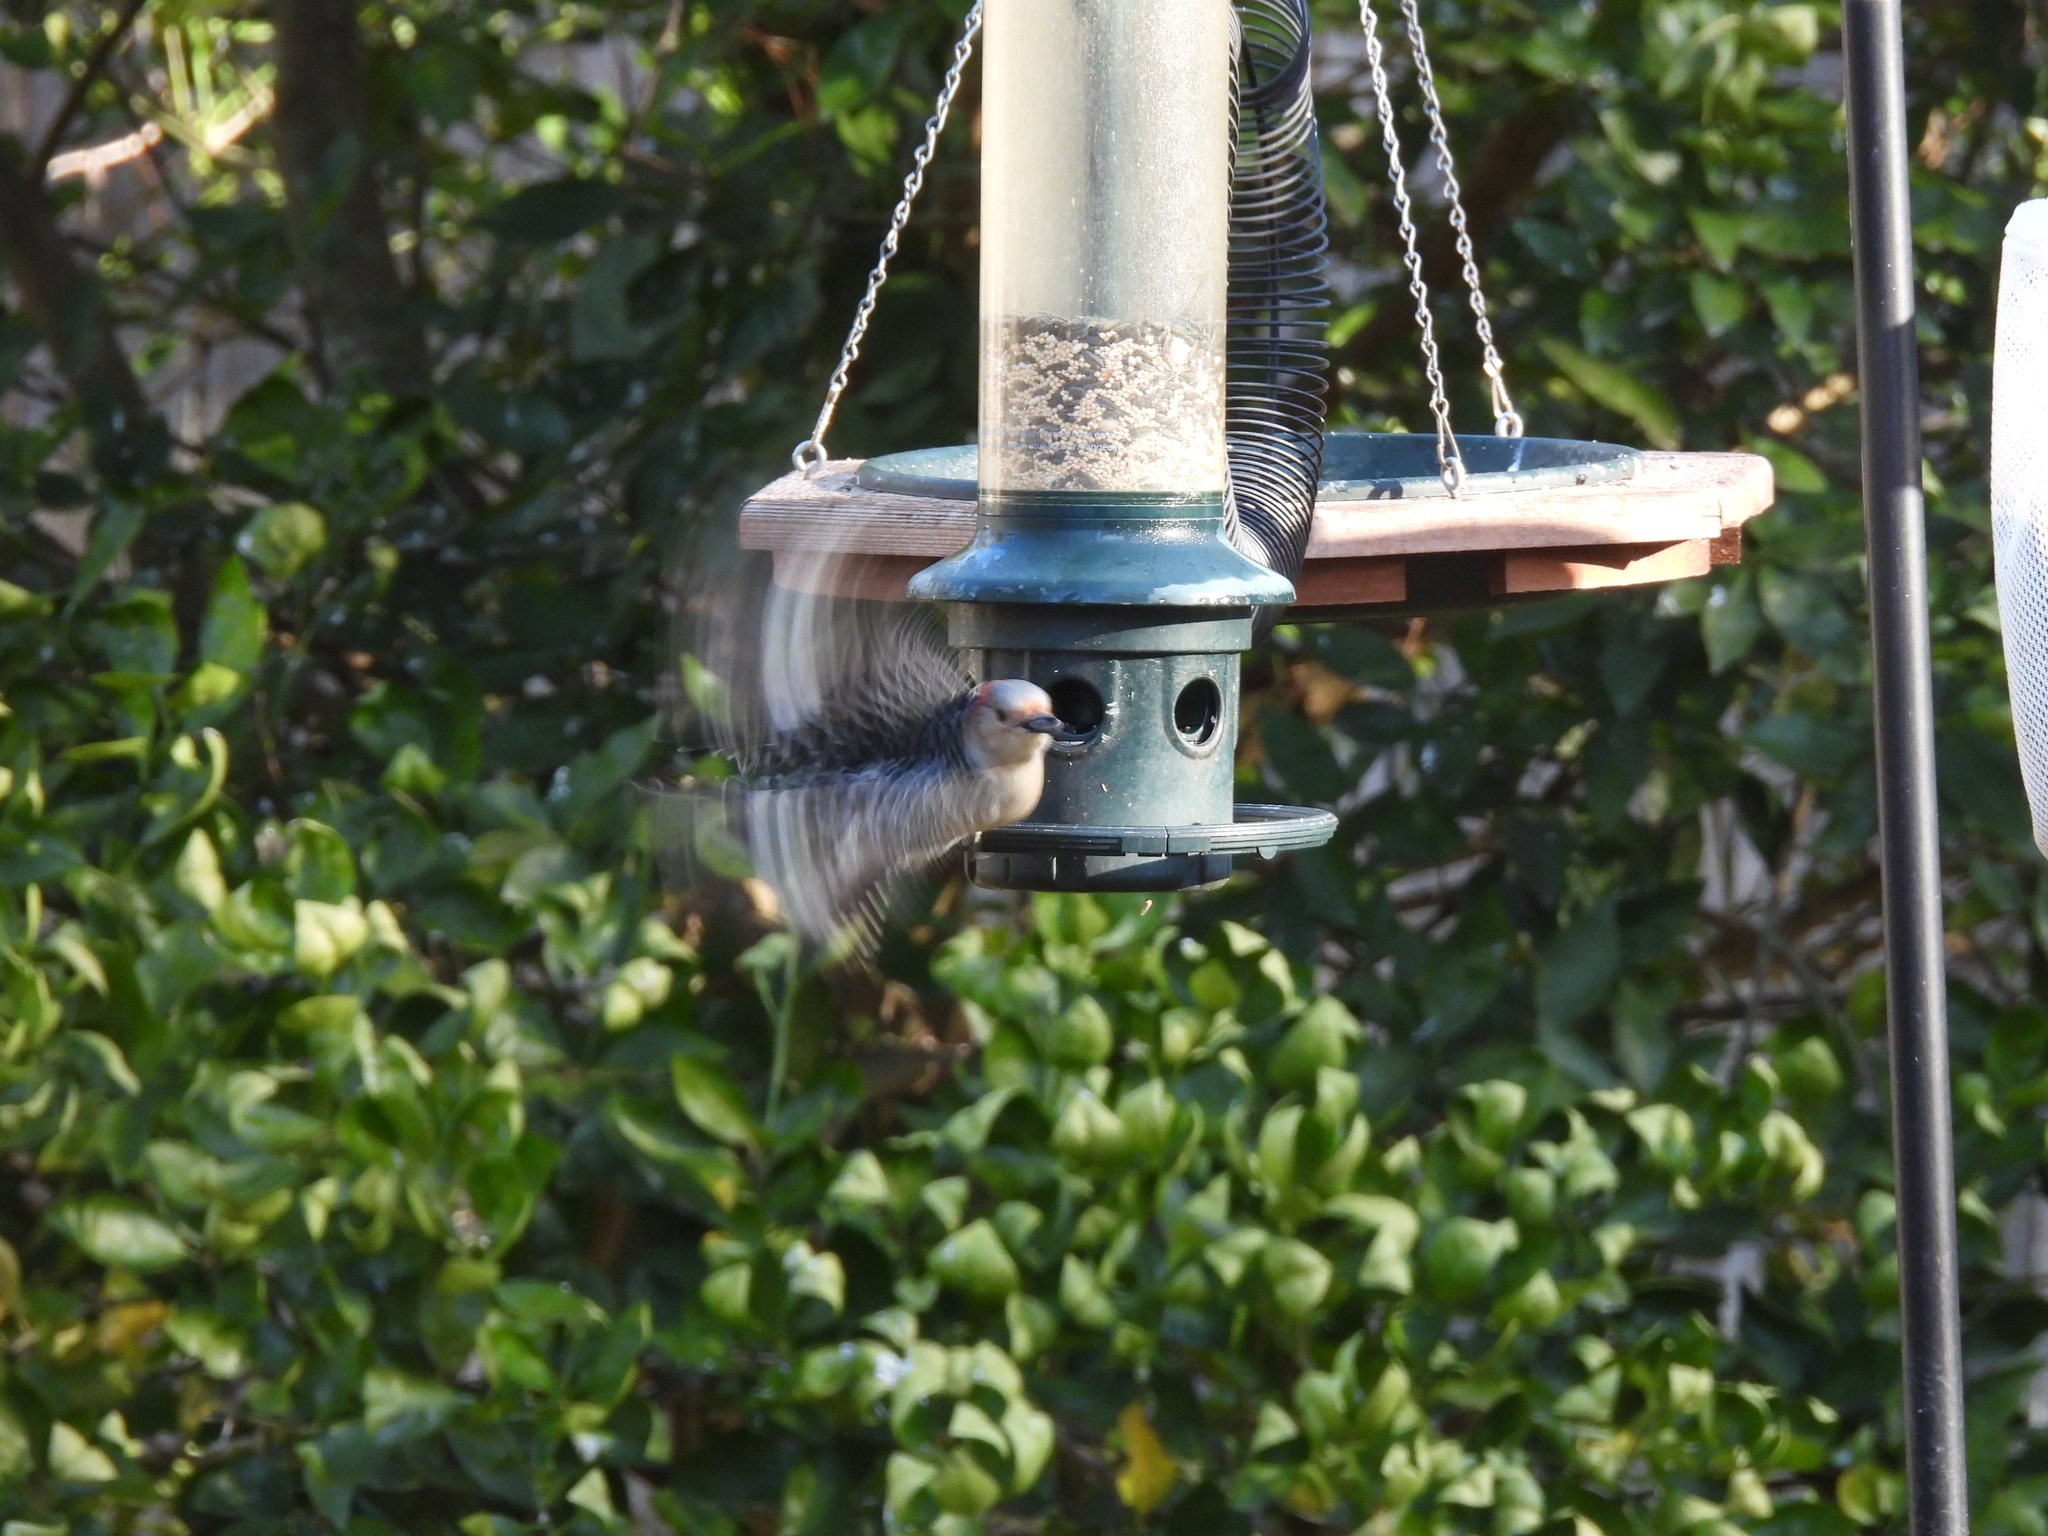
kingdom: Animalia
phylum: Chordata
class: Aves
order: Piciformes
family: Picidae
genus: Melanerpes
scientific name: Melanerpes carolinus
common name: Red-bellied woodpecker
